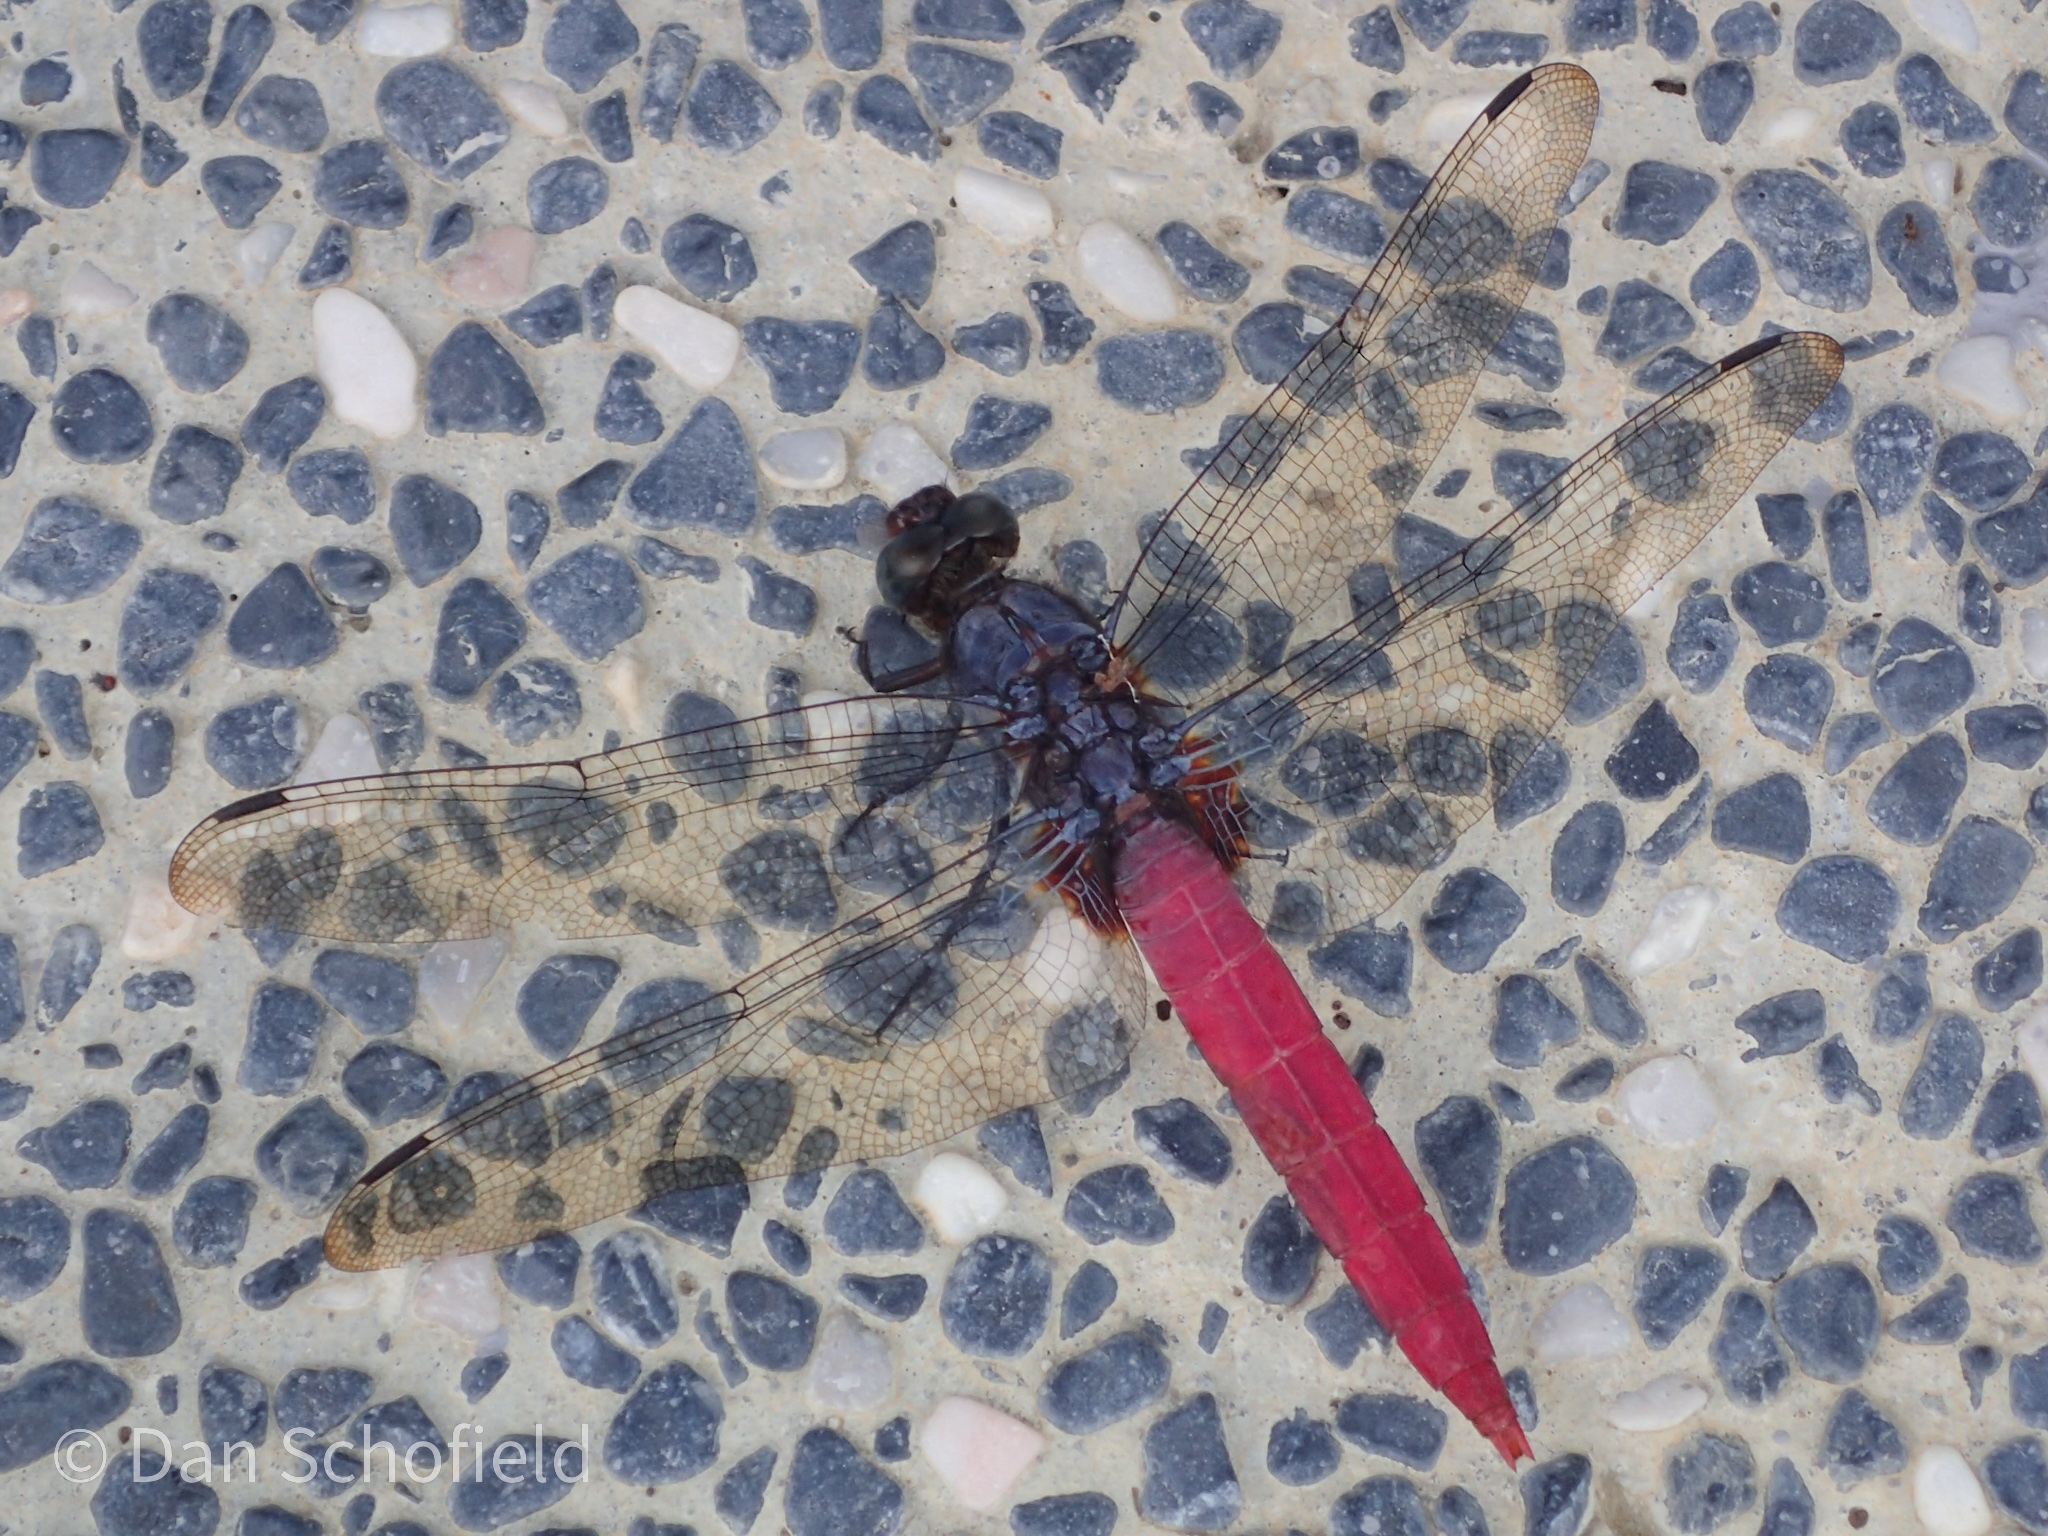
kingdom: Animalia
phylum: Arthropoda
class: Insecta
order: Odonata
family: Libellulidae
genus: Orthetrum
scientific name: Orthetrum pruinosum
